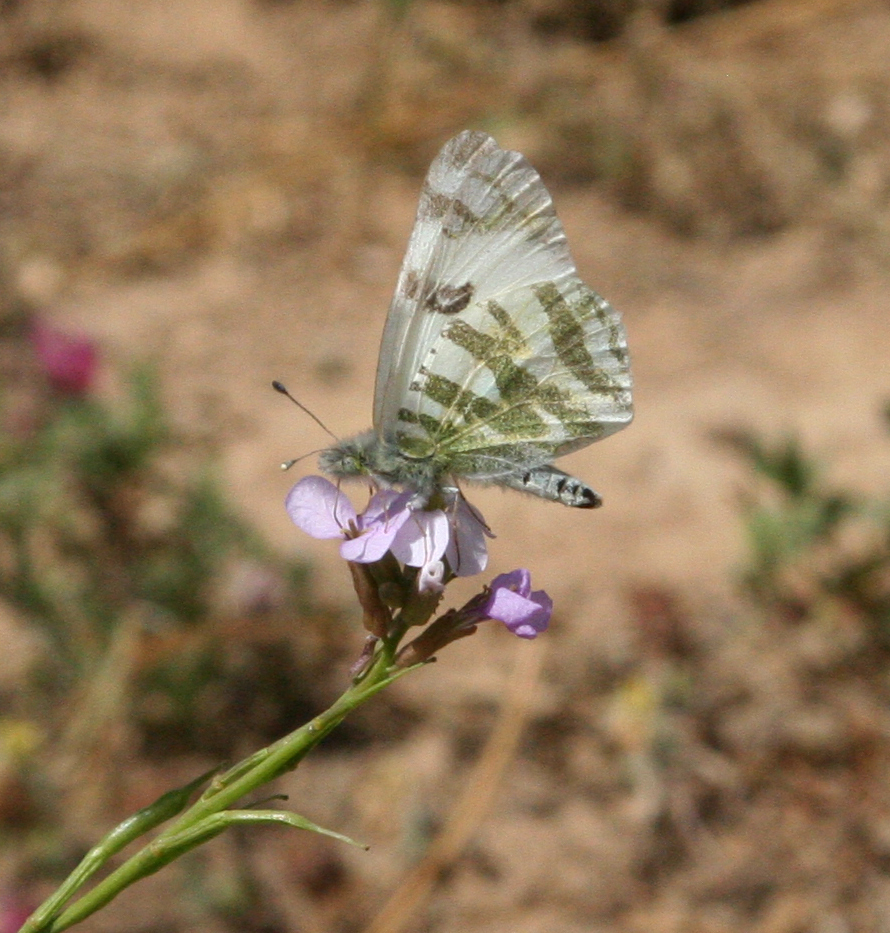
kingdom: Animalia
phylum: Arthropoda
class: Insecta
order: Lepidoptera
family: Pieridae
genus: Euchloe
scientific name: Euchloe belemia
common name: Green-striped white
